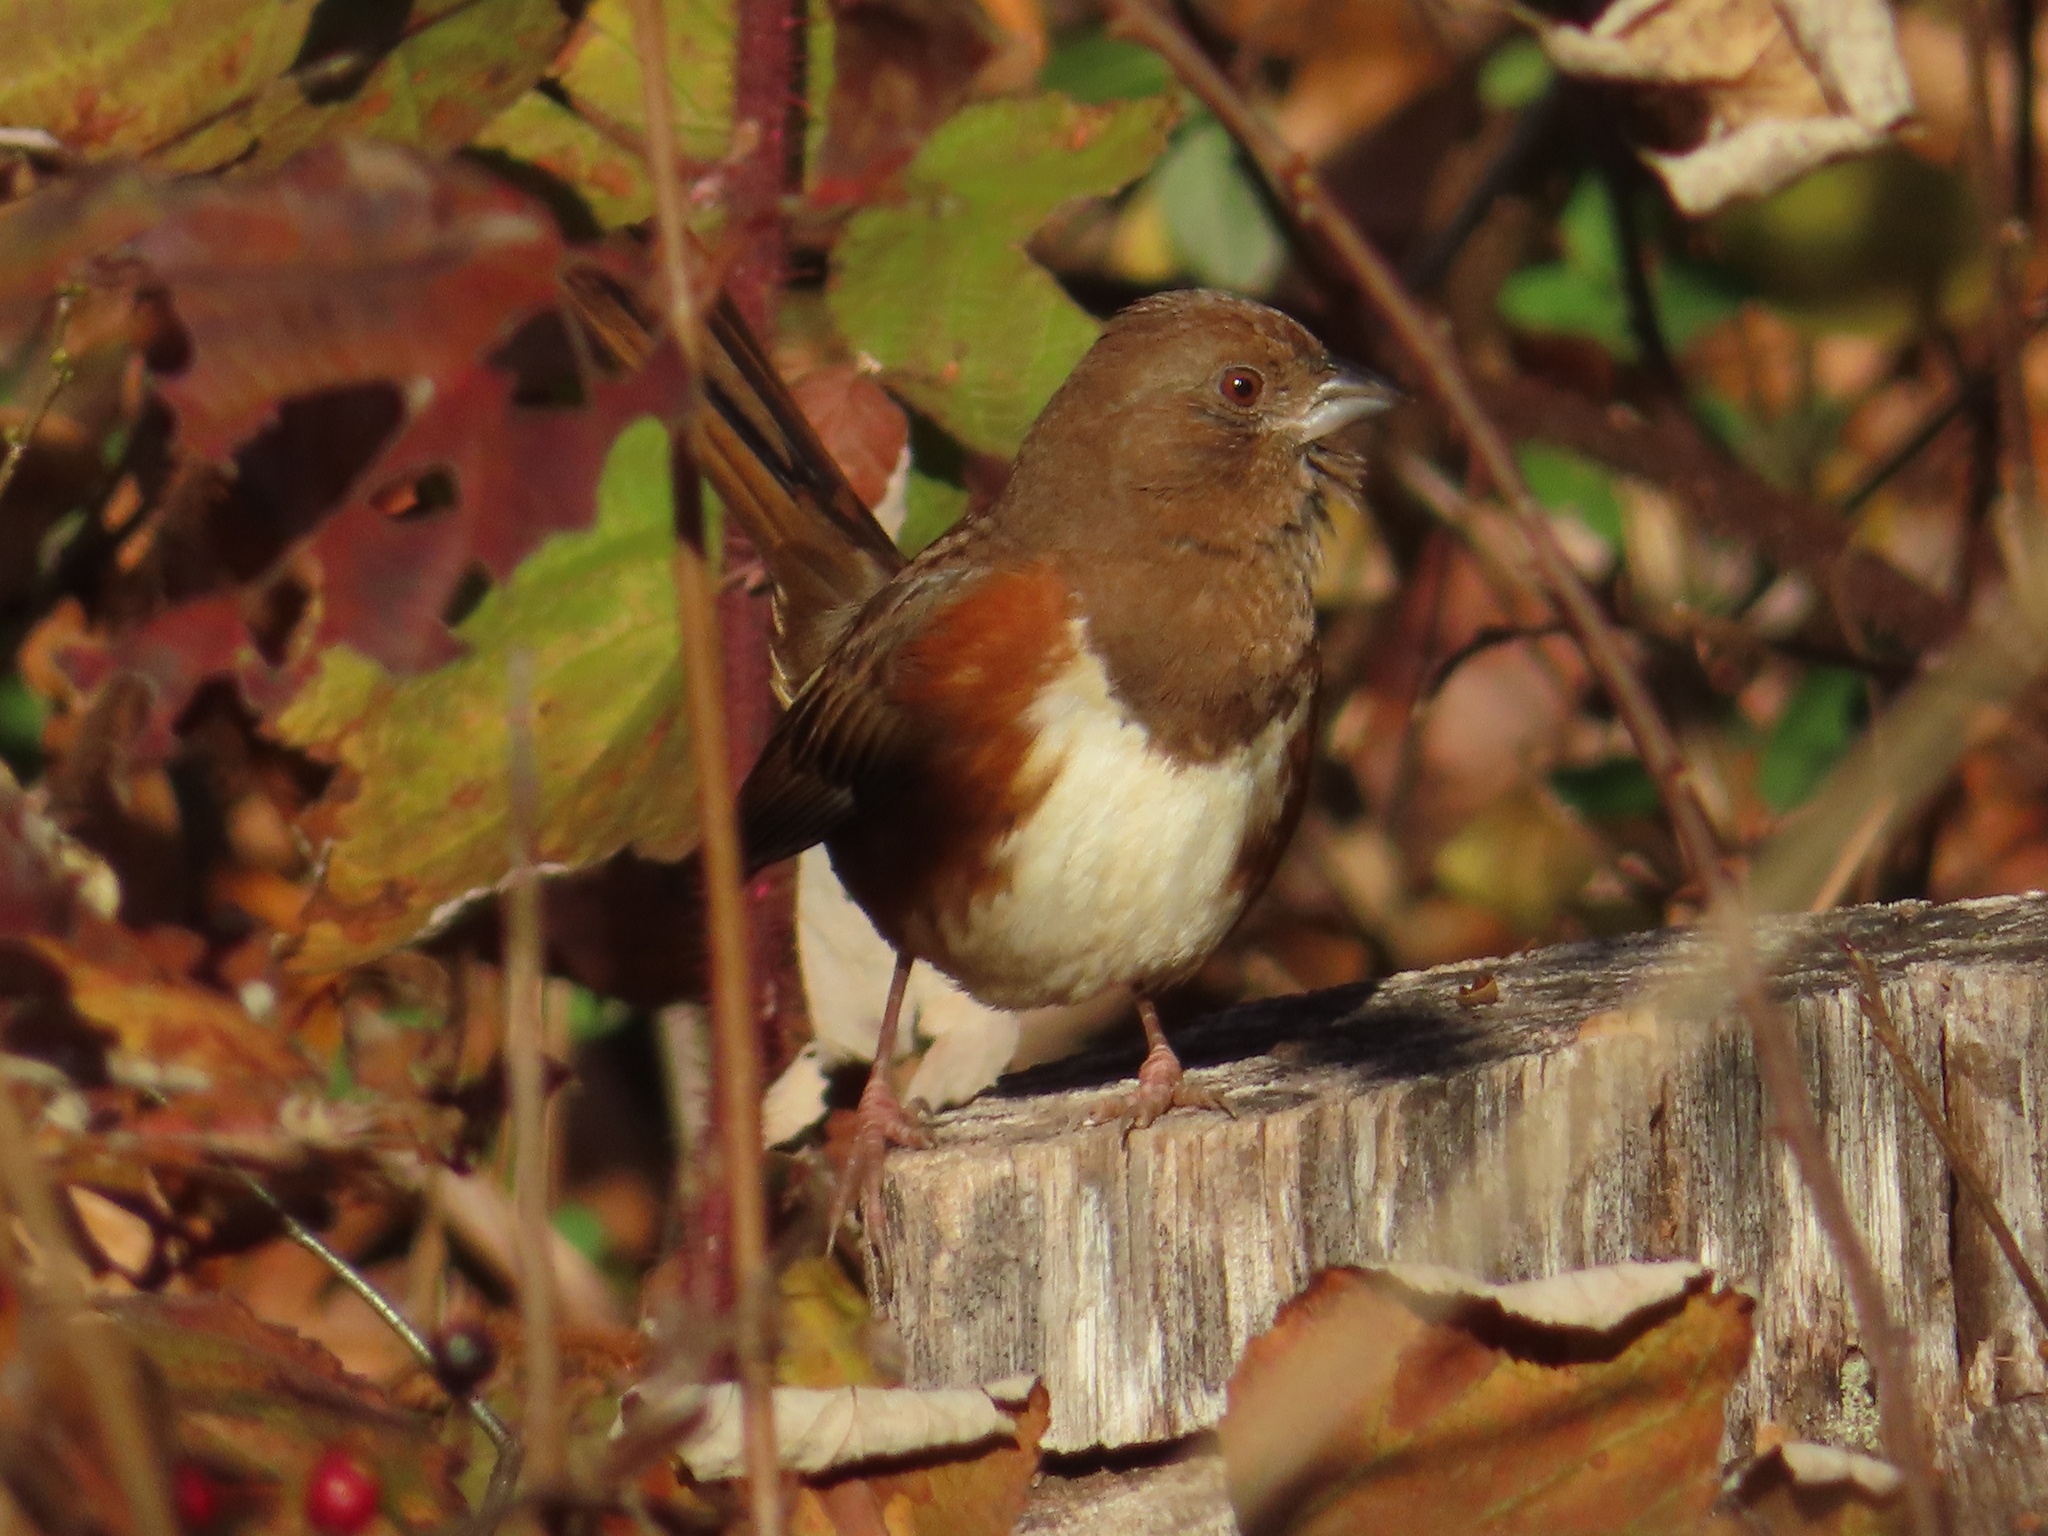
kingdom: Animalia
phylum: Chordata
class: Aves
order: Passeriformes
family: Passerellidae
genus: Pipilo
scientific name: Pipilo erythrophthalmus
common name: Eastern towhee
